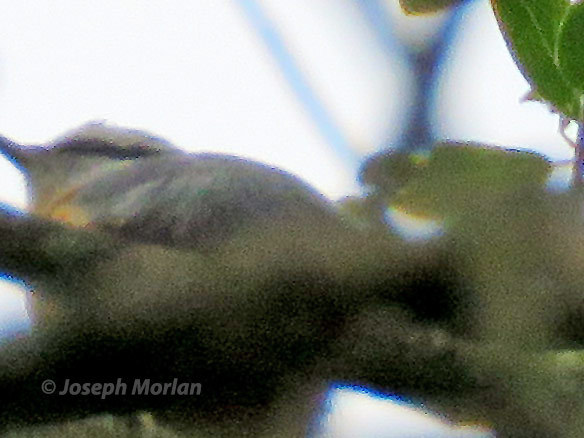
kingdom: Animalia
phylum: Chordata
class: Aves
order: Passeriformes
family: Sittidae
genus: Sitta
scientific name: Sitta canadensis
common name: Red-breasted nuthatch
